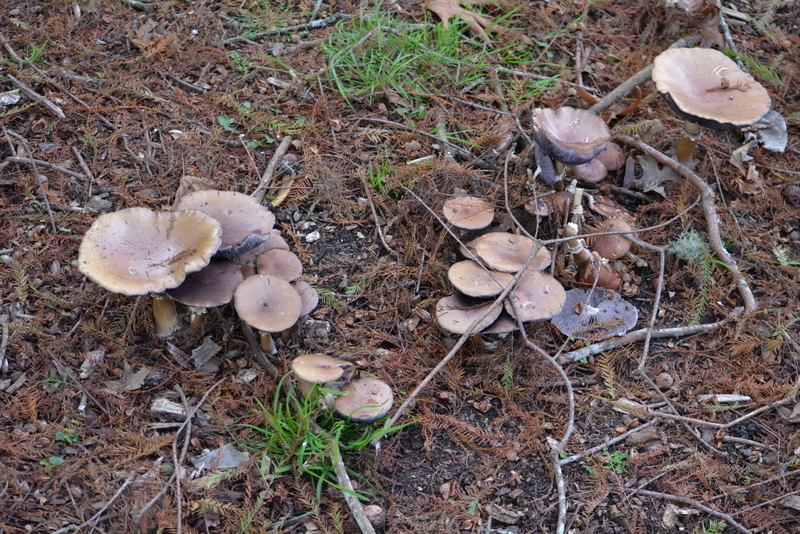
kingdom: Fungi
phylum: Basidiomycota
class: Agaricomycetes
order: Agaricales
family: Strophariaceae
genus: Stropharia
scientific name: Stropharia rugosoannulata
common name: Wine roundhead
